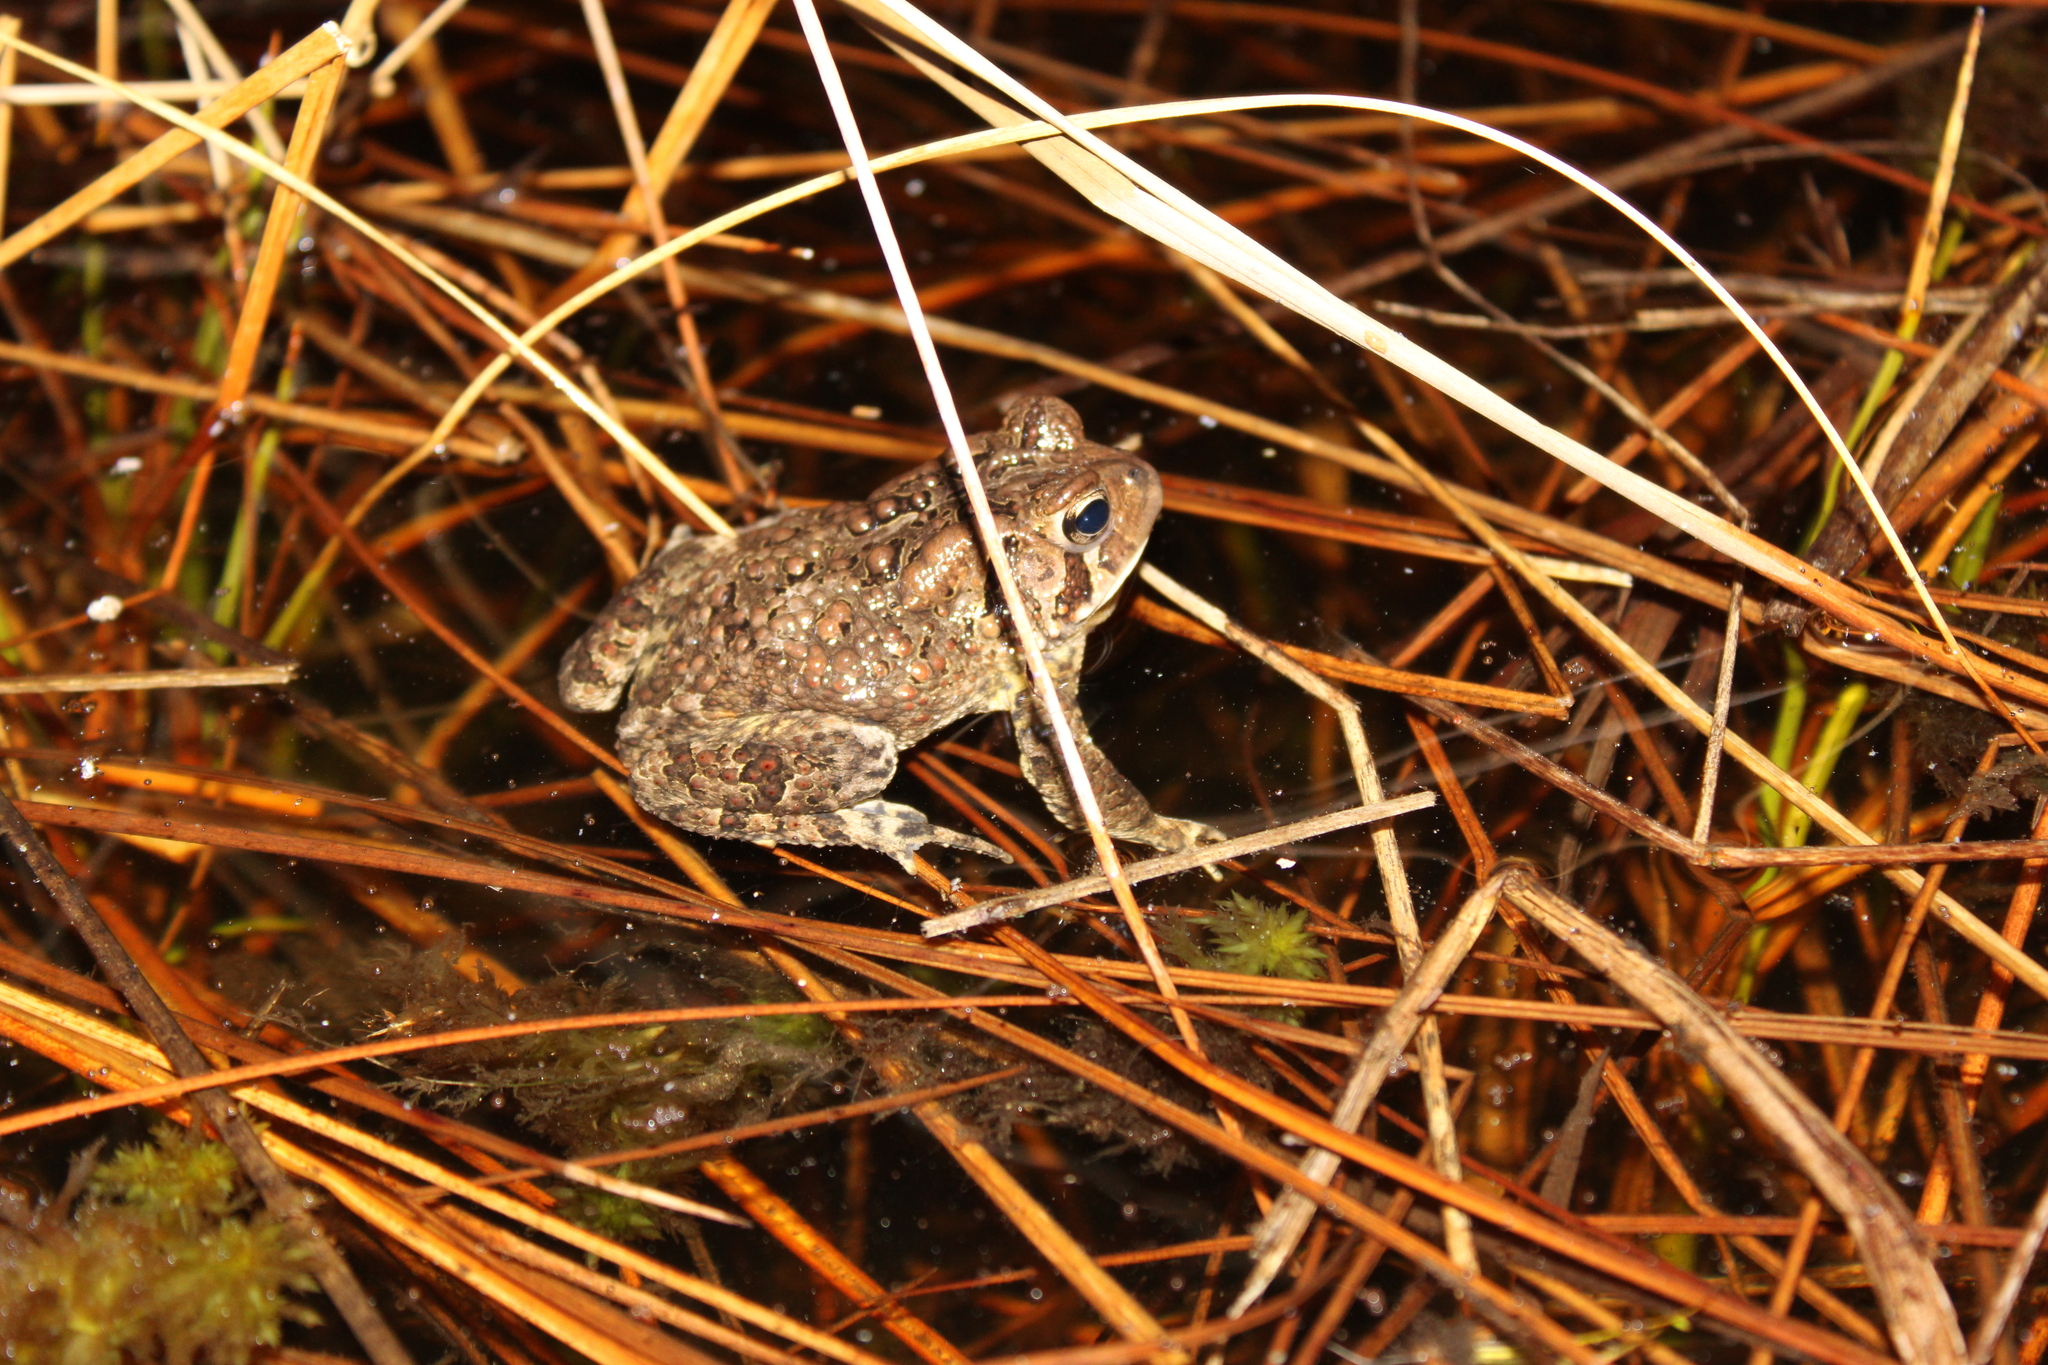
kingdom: Animalia
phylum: Chordata
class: Amphibia
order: Anura
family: Bufonidae
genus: Anaxyrus
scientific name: Anaxyrus americanus
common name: American toad
